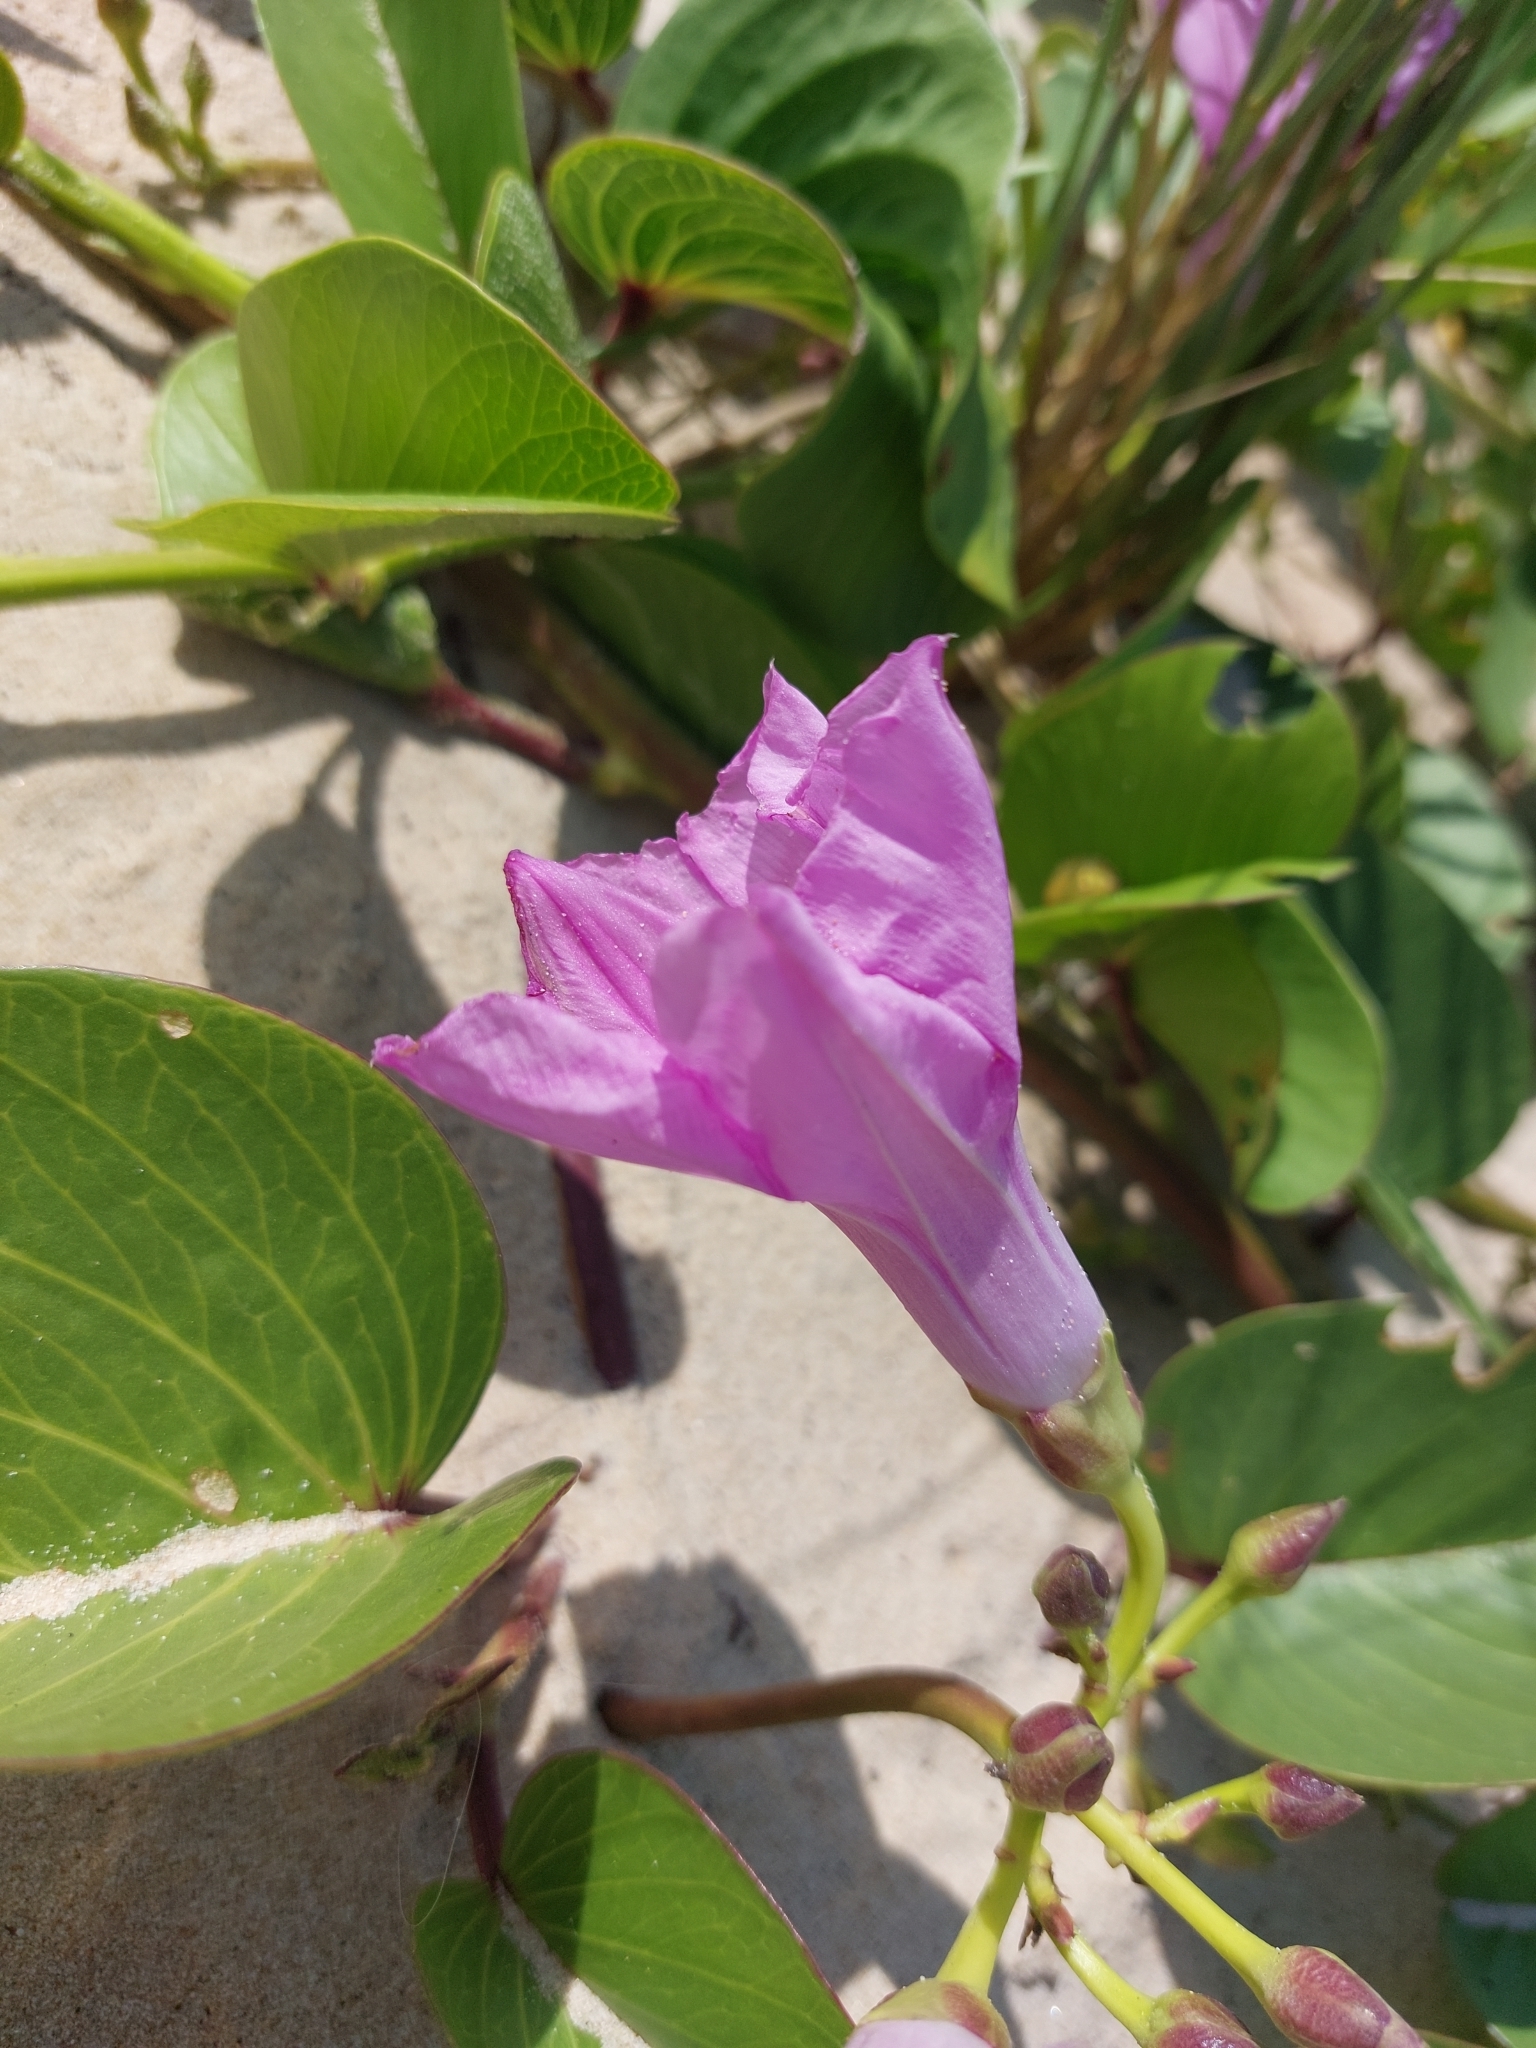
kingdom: Plantae
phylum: Tracheophyta
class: Magnoliopsida
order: Solanales
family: Convolvulaceae
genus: Ipomoea
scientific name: Ipomoea pes-caprae
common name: Beach morning glory
